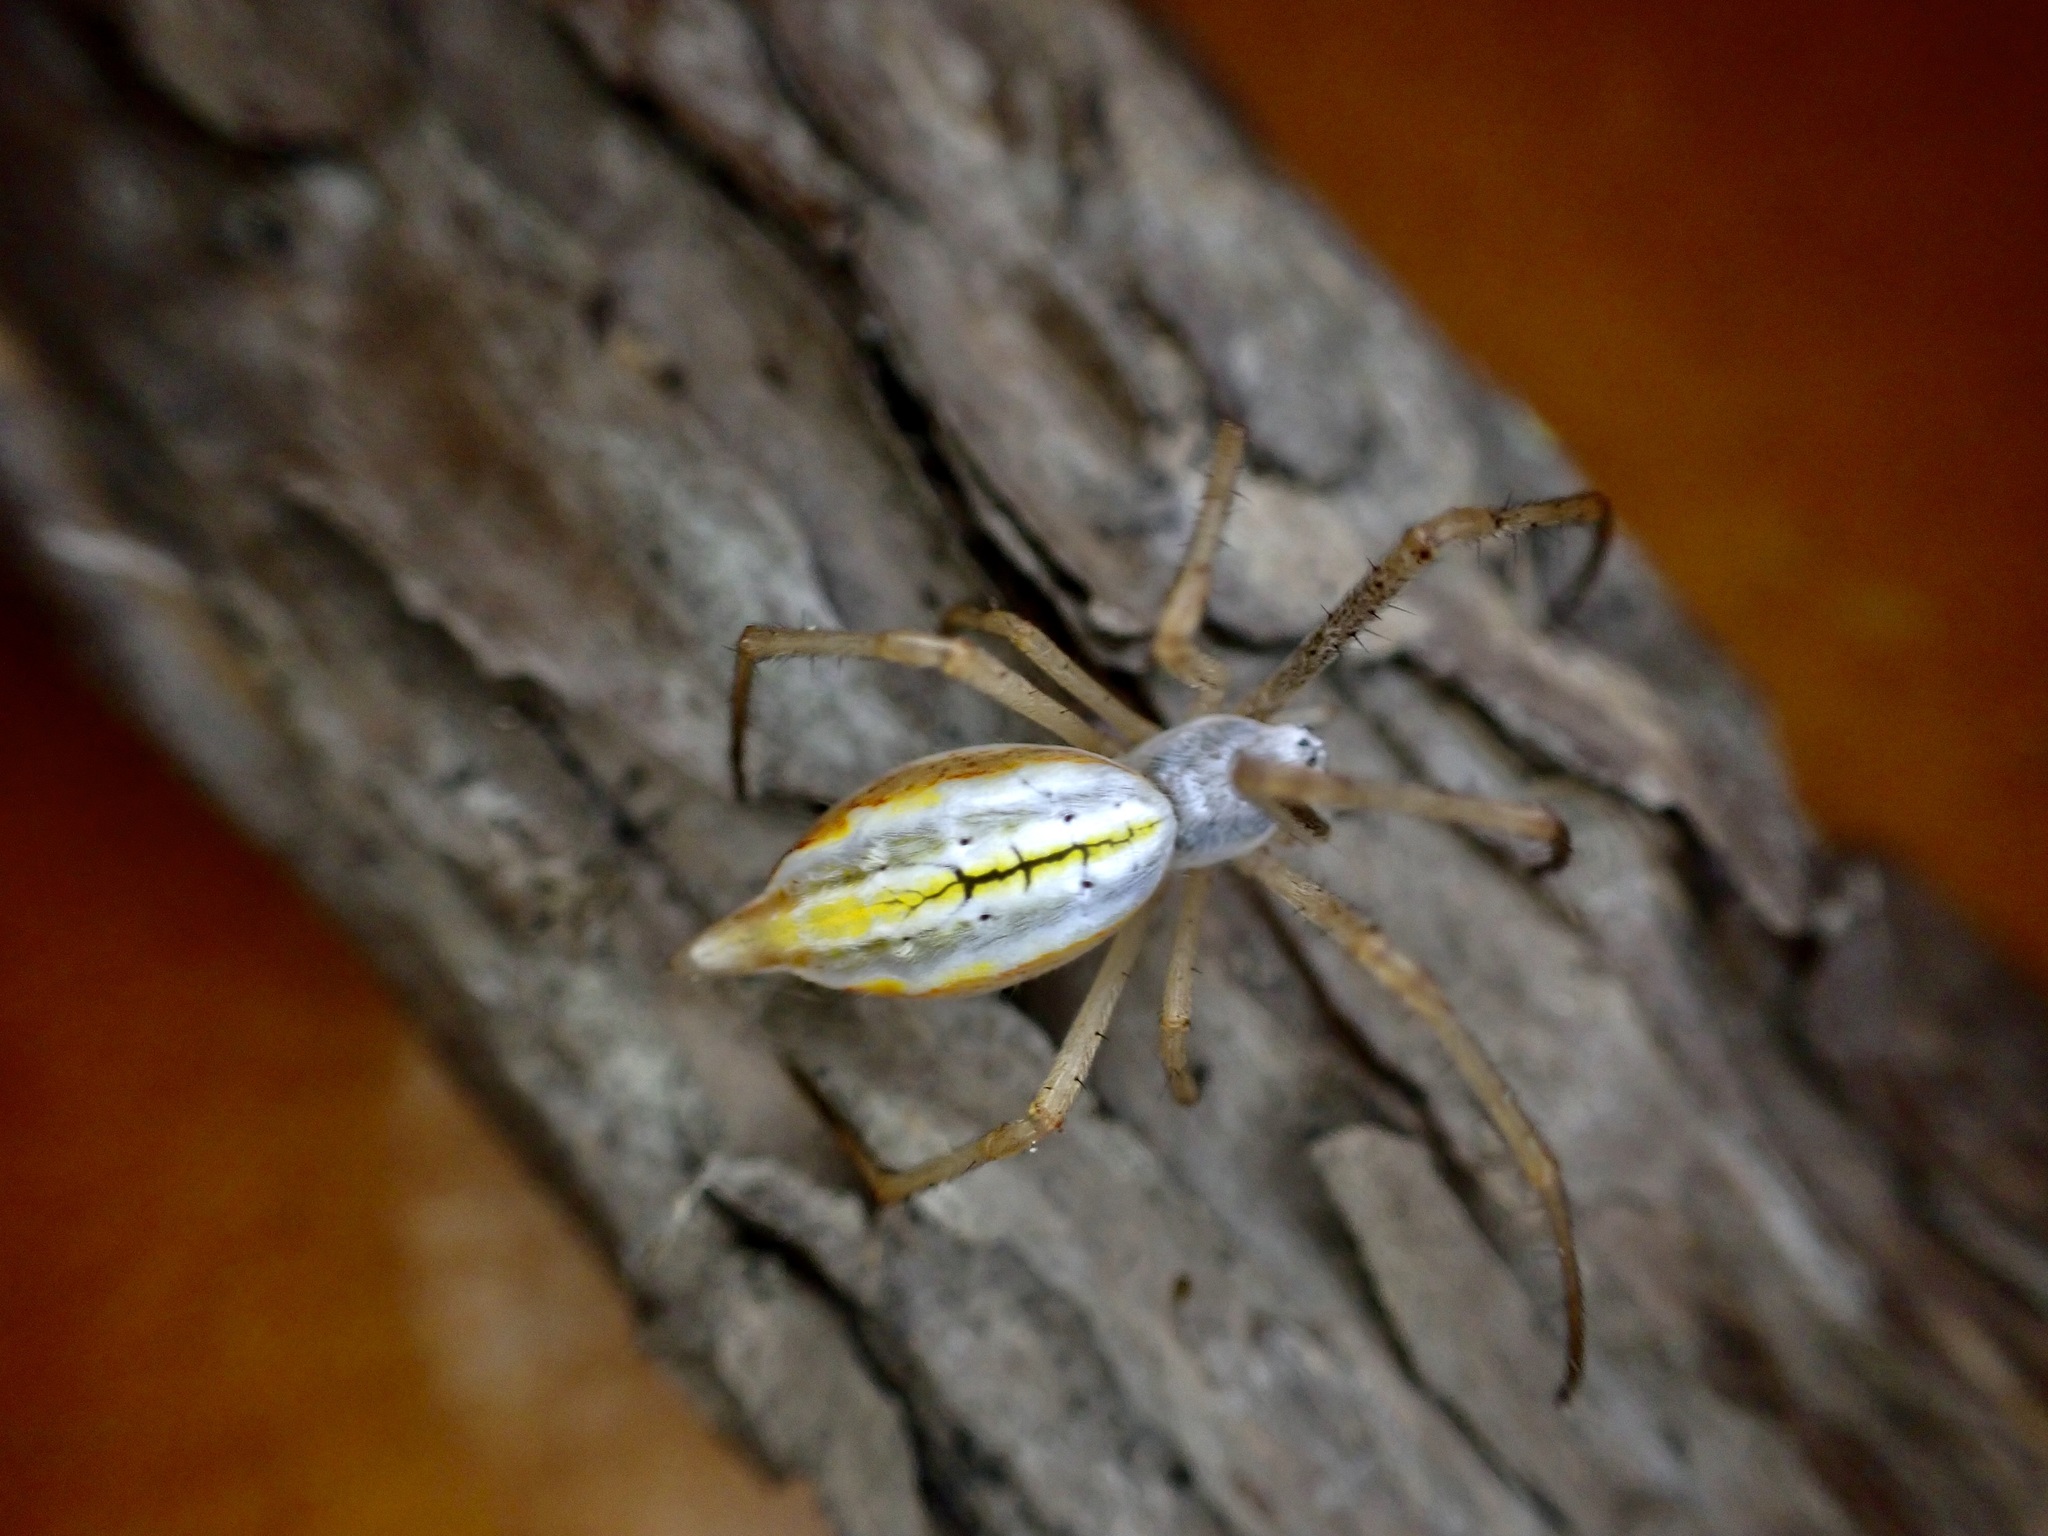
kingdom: Animalia
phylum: Arthropoda
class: Arachnida
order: Araneae
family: Araneidae
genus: Argiope
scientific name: Argiope protensa
